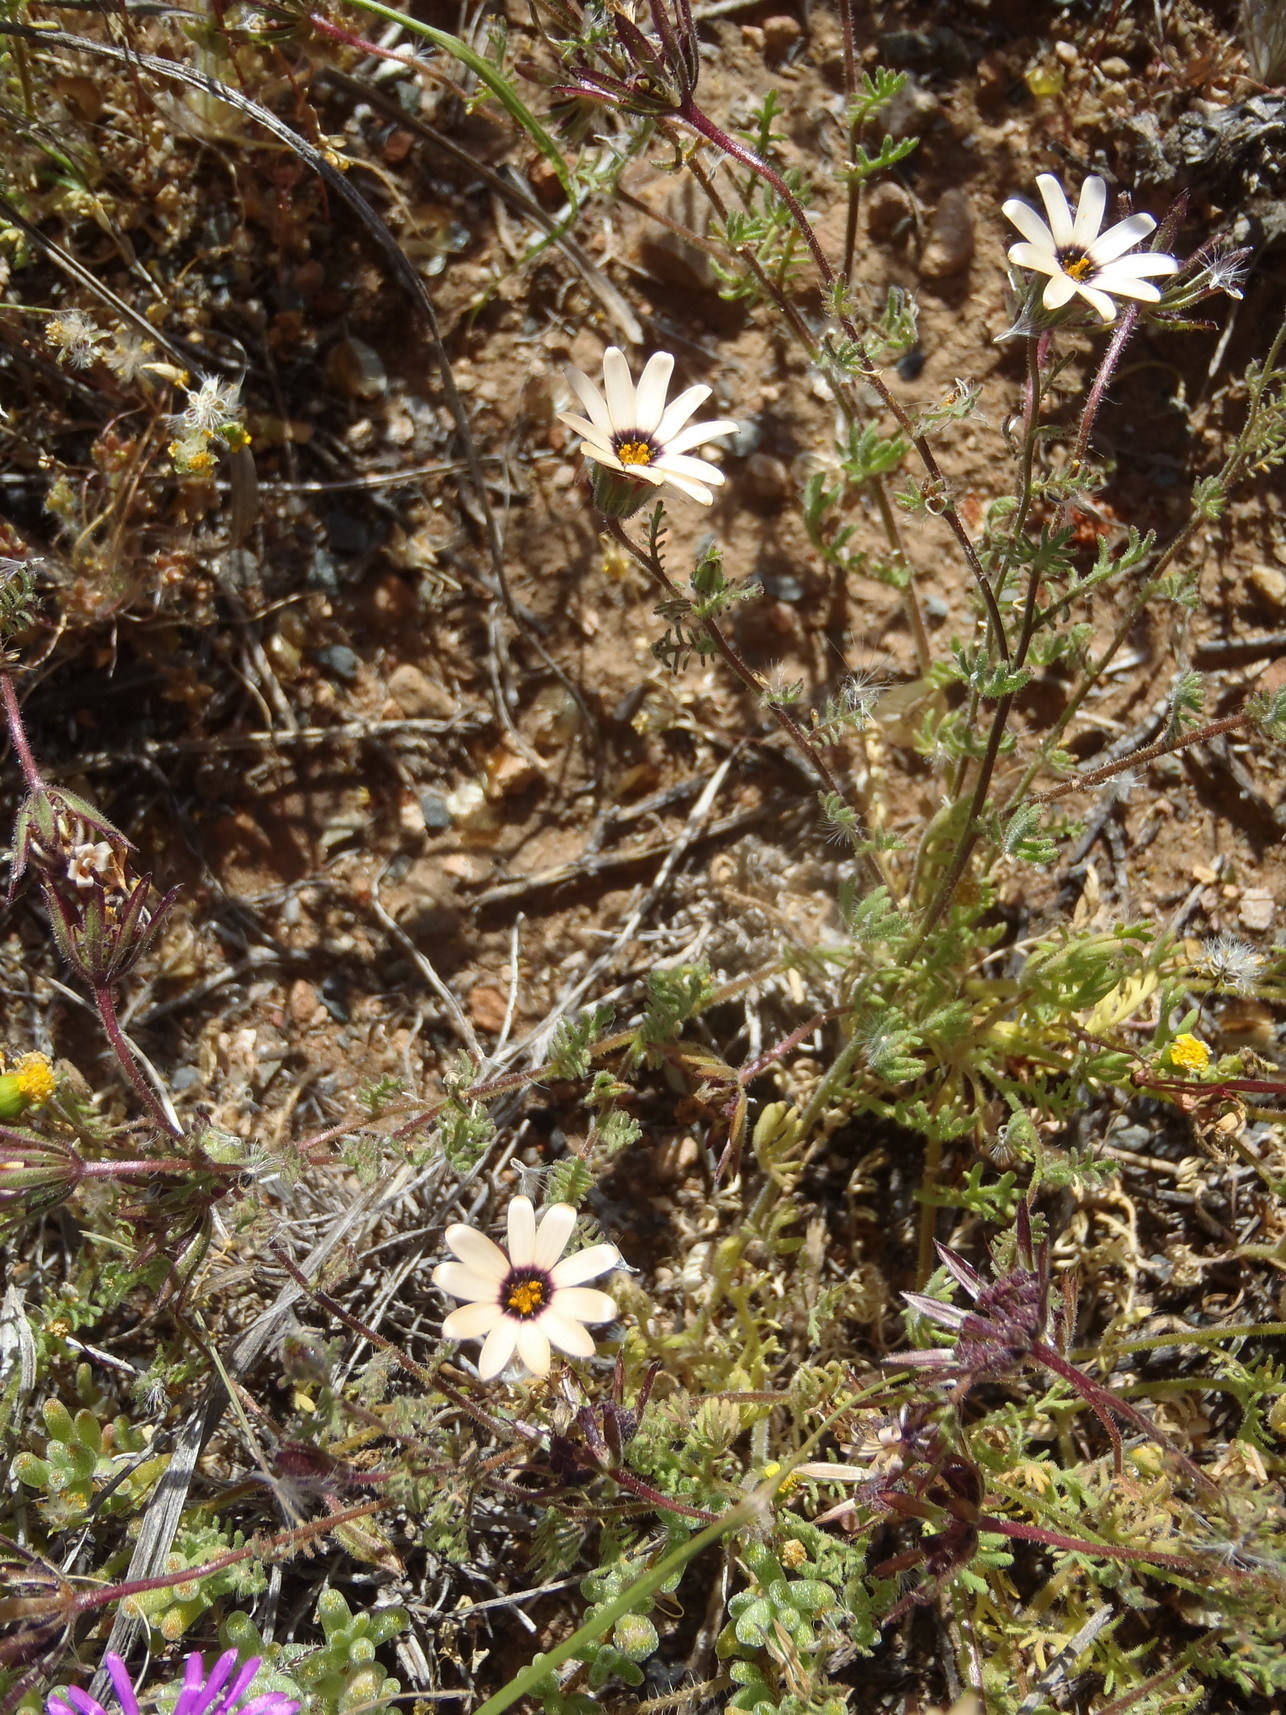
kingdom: Plantae
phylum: Tracheophyta
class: Magnoliopsida
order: Asterales
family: Asteraceae
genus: Dimorphotheca
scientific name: Dimorphotheca pinnata
